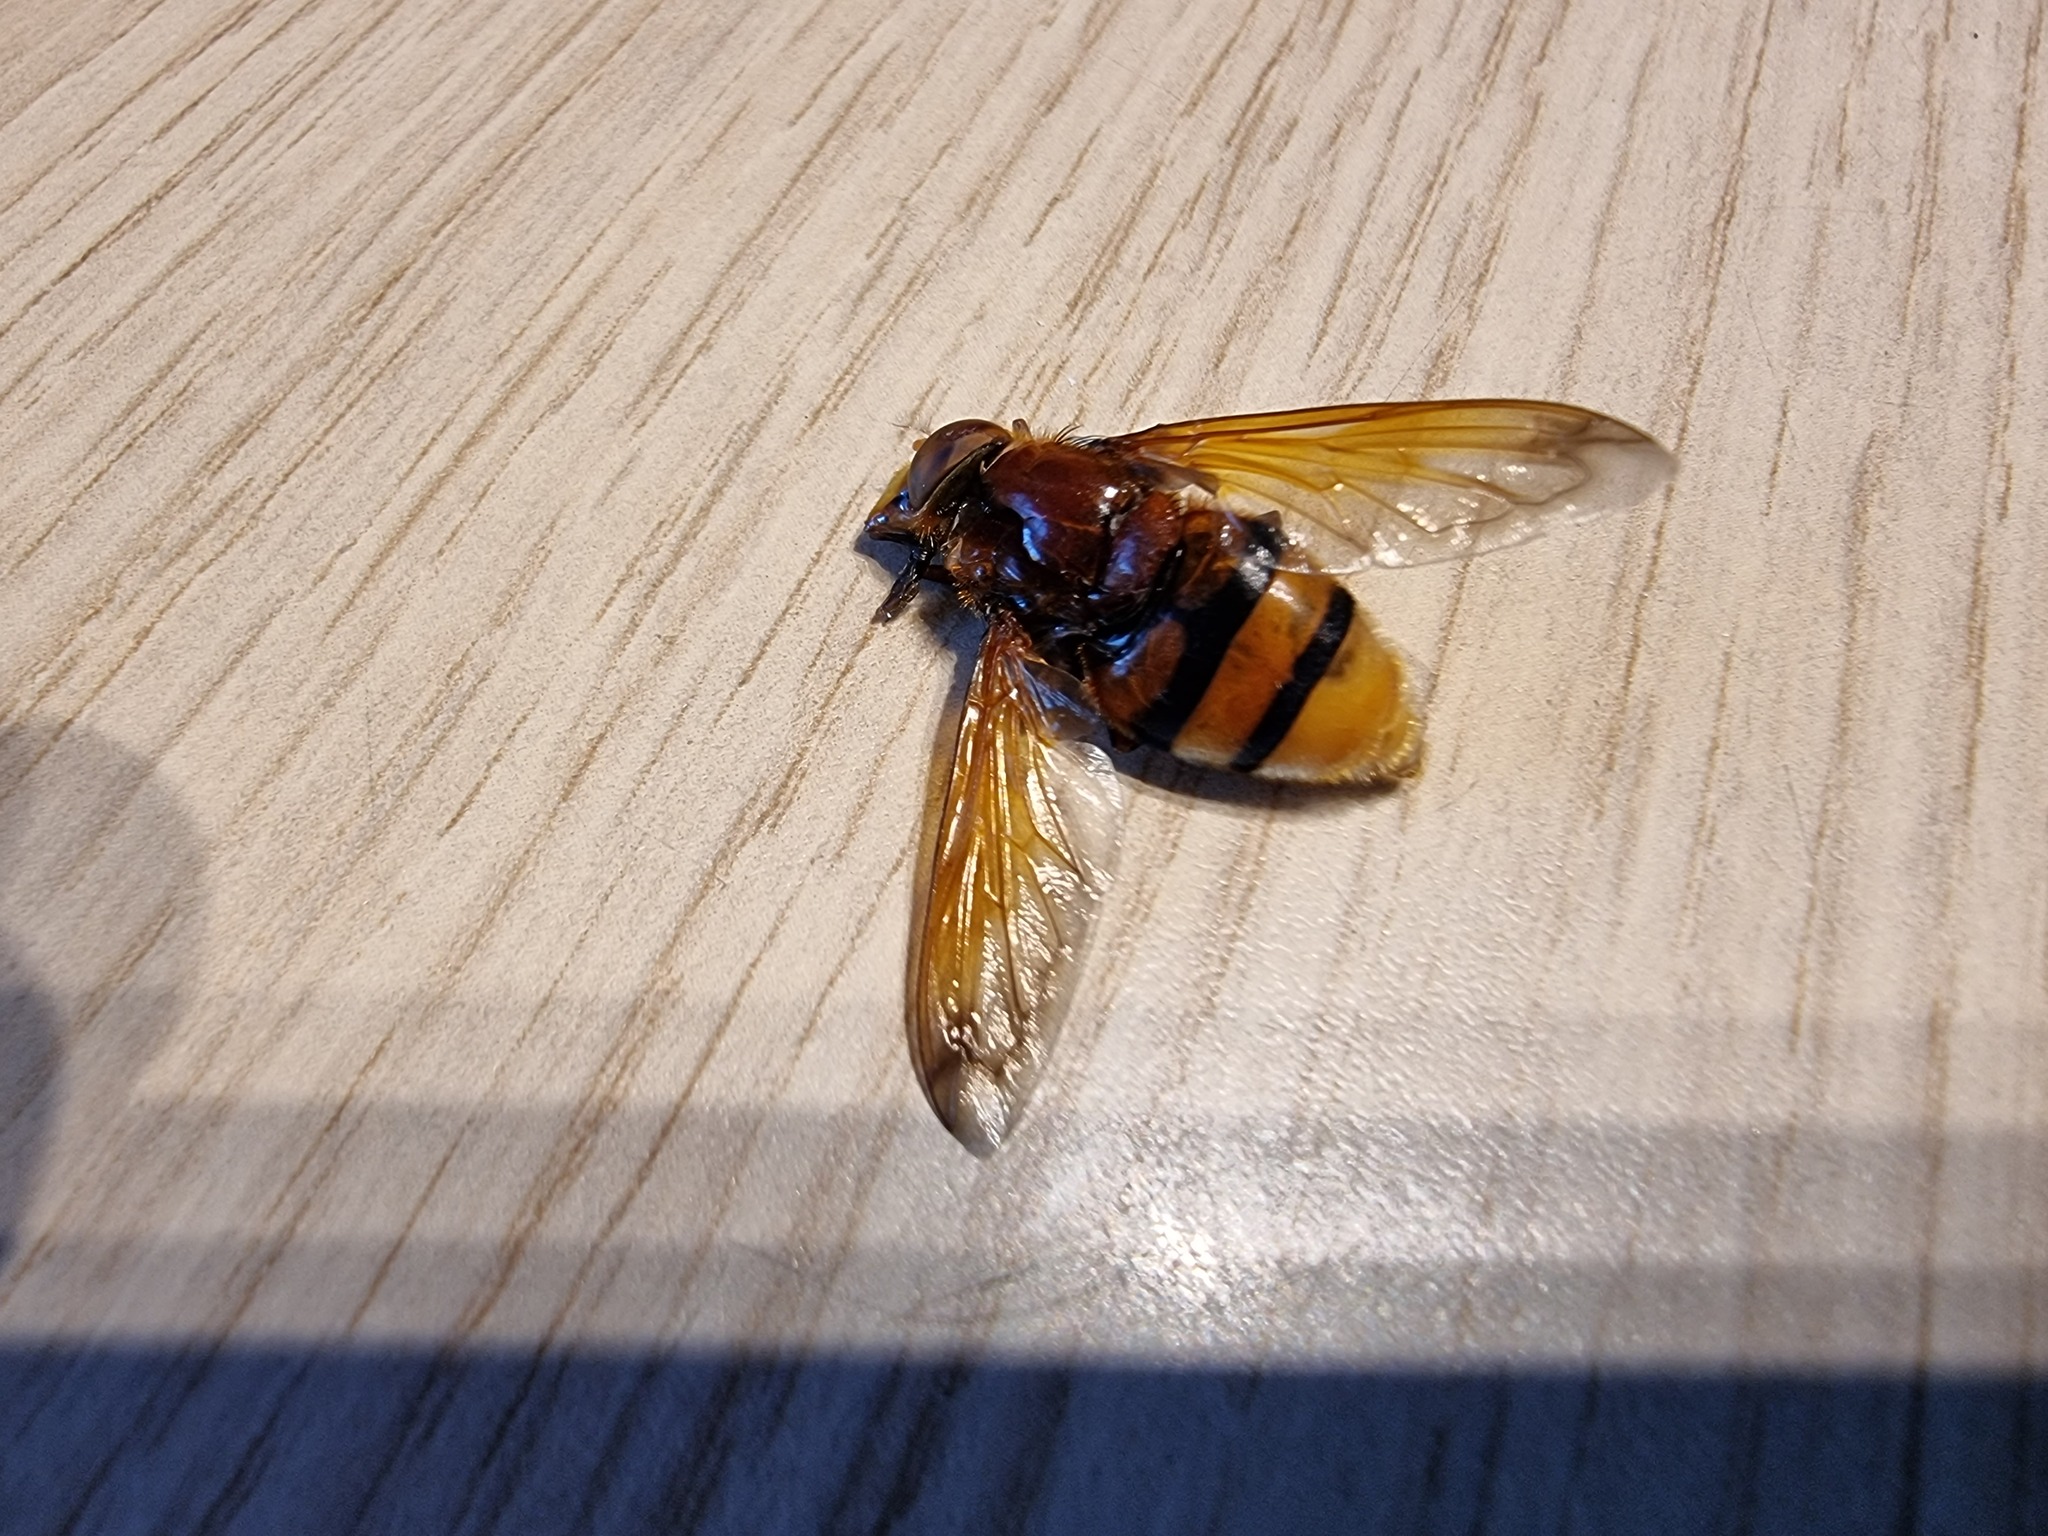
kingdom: Animalia
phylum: Arthropoda
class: Insecta
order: Diptera
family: Syrphidae
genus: Volucella
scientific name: Volucella zonaria
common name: Hornet hoverfly
